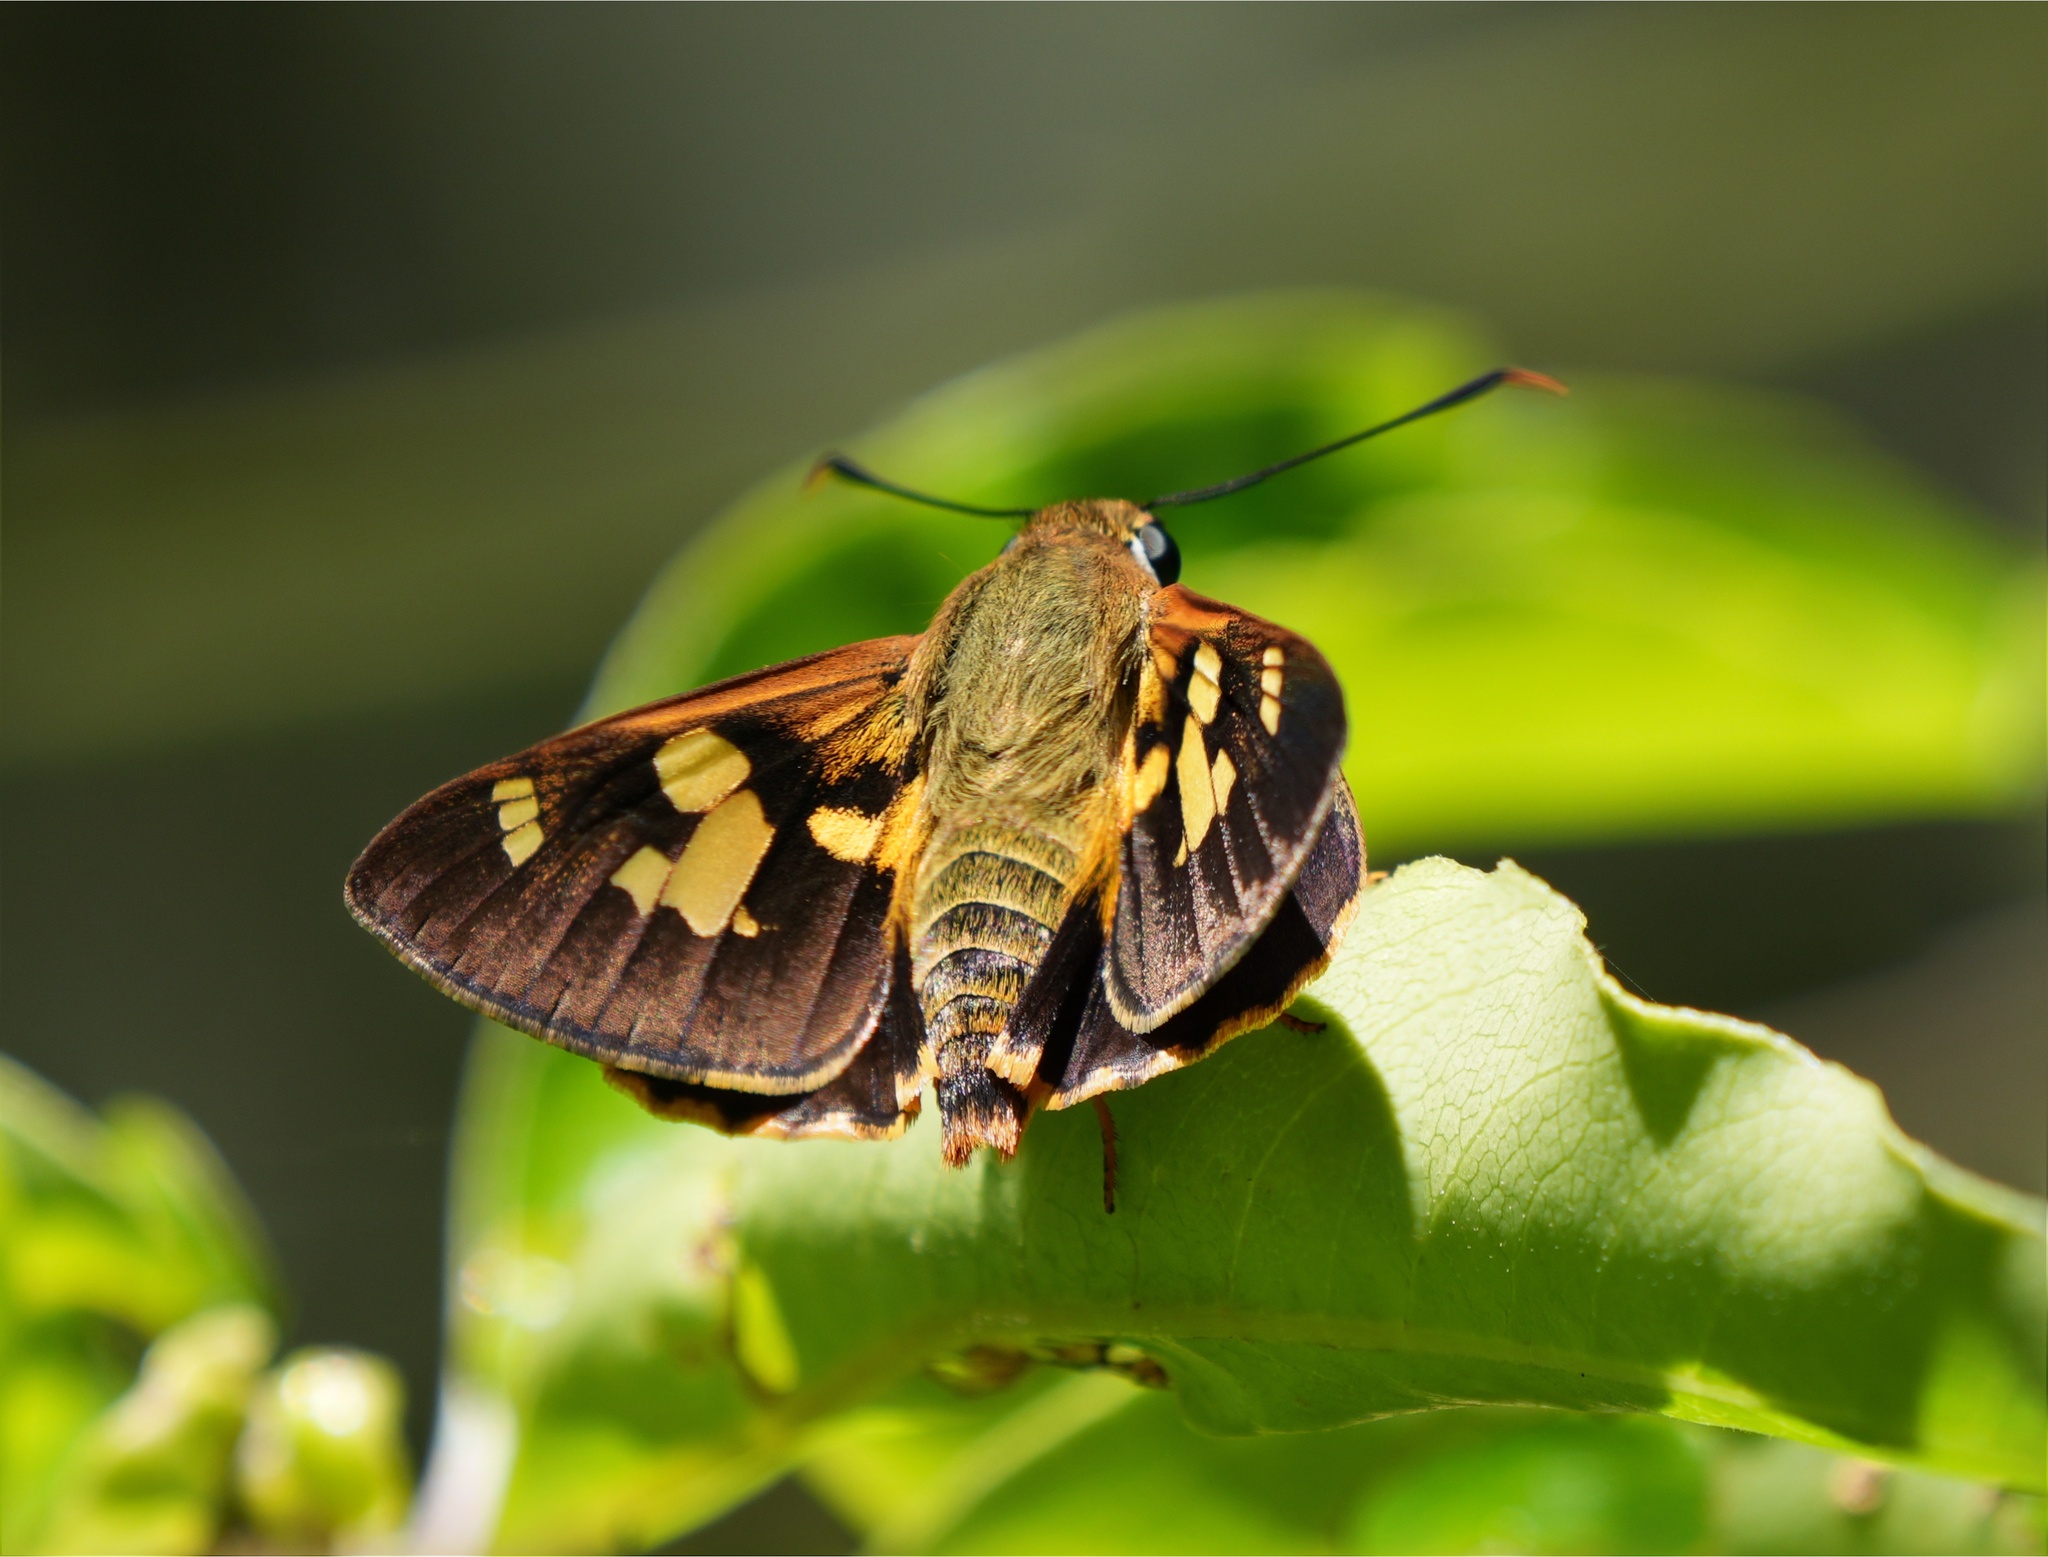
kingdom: Animalia
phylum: Arthropoda
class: Insecta
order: Lepidoptera
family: Hesperiidae
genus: Trapezites
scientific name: Trapezites symmomus
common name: Splendid ochre
